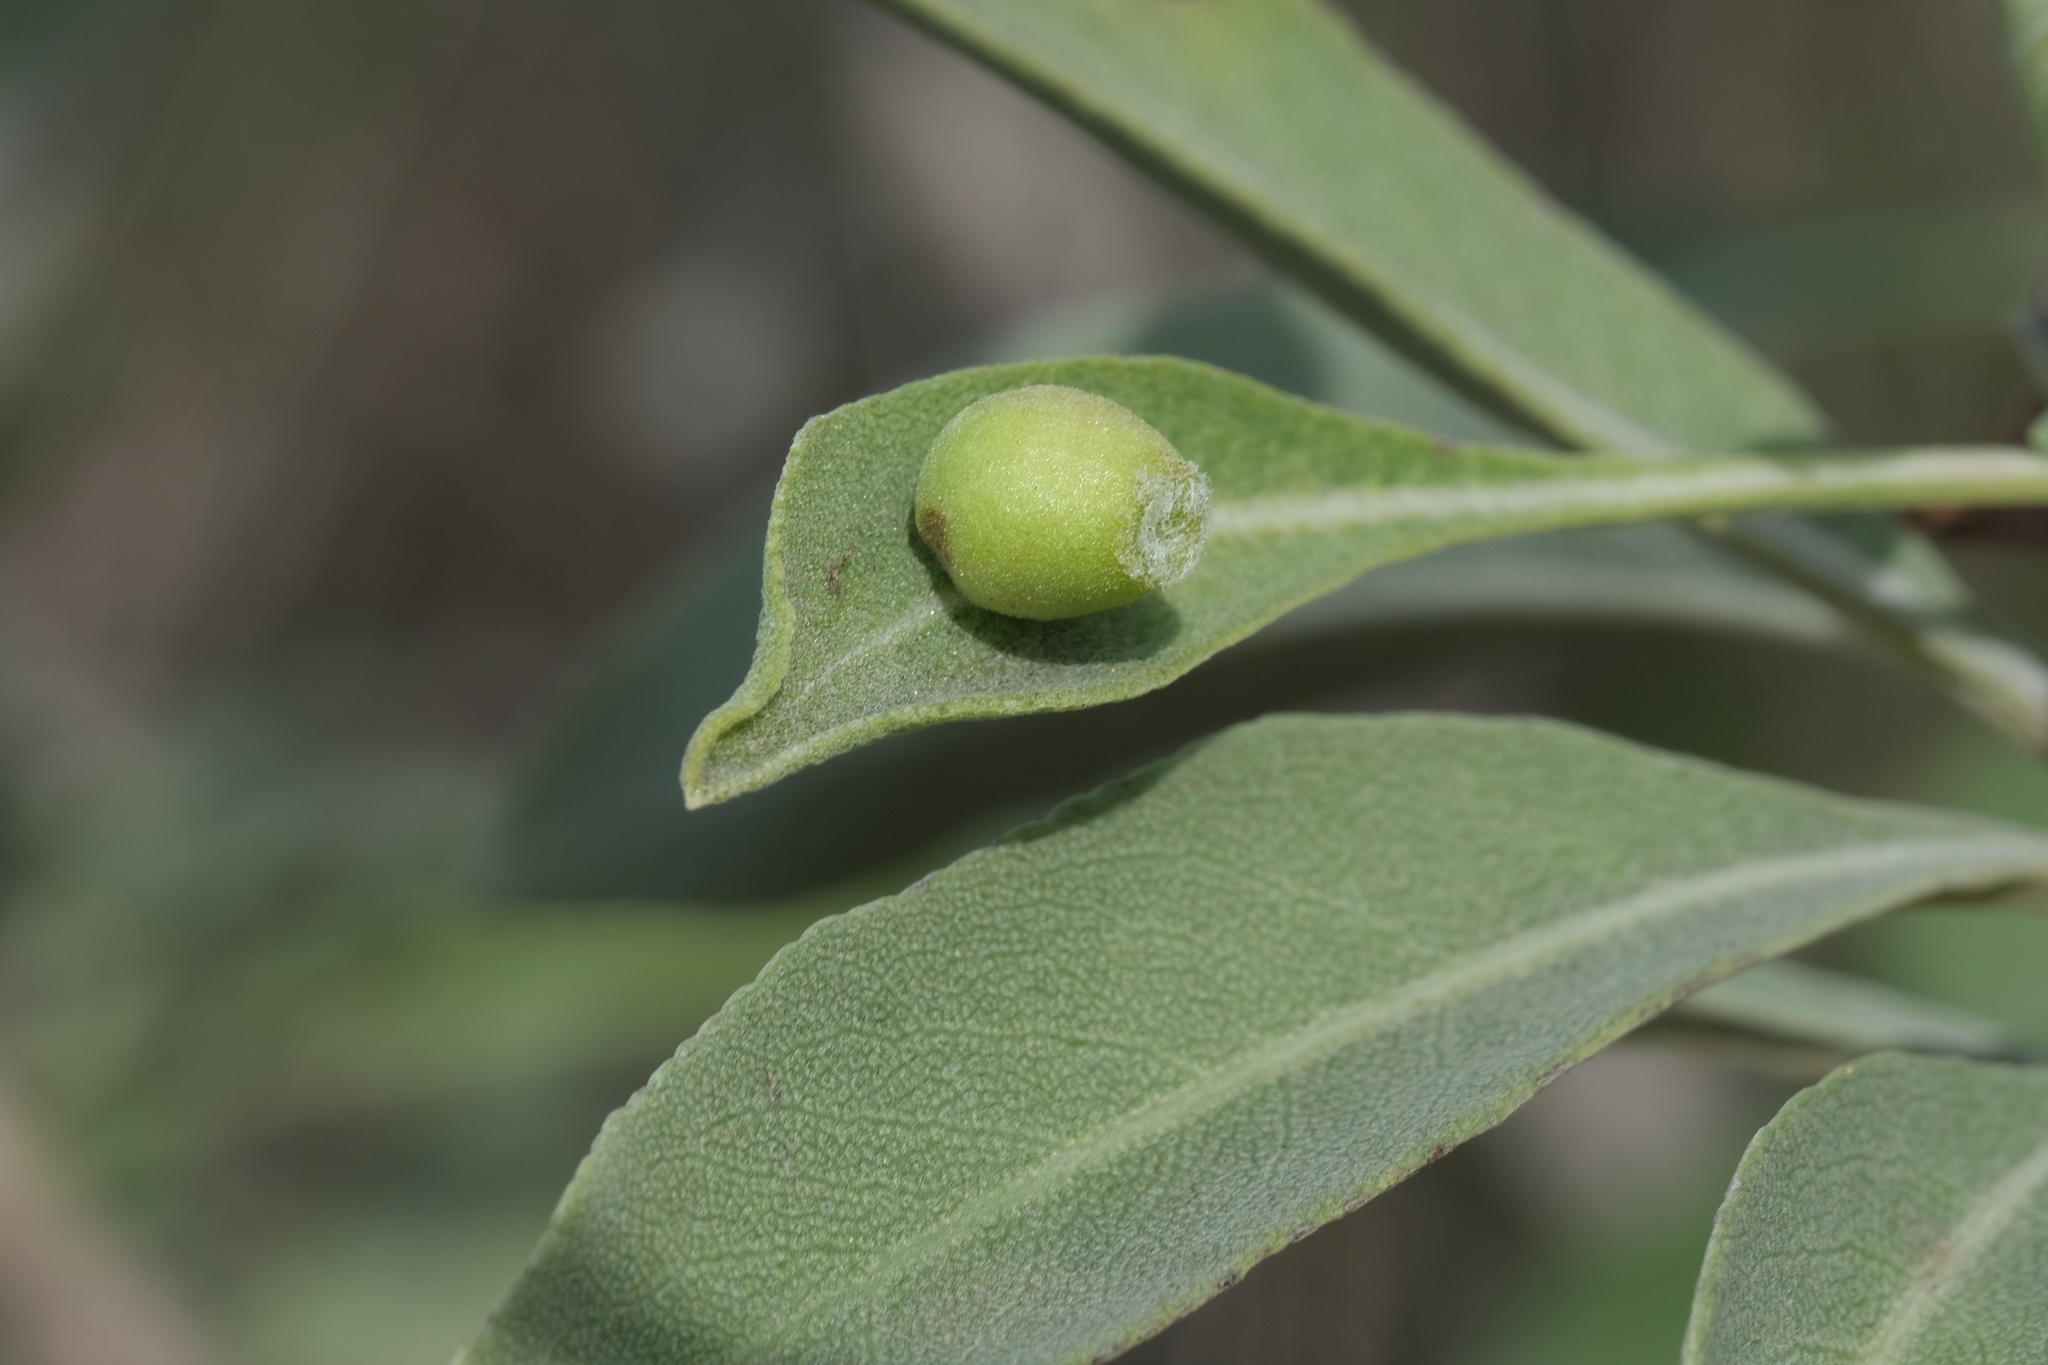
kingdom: Animalia
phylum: Arthropoda
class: Insecta
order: Diptera
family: Cecidomyiidae
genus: Rhopalomyia
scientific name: Rhopalomyia audibertiae
